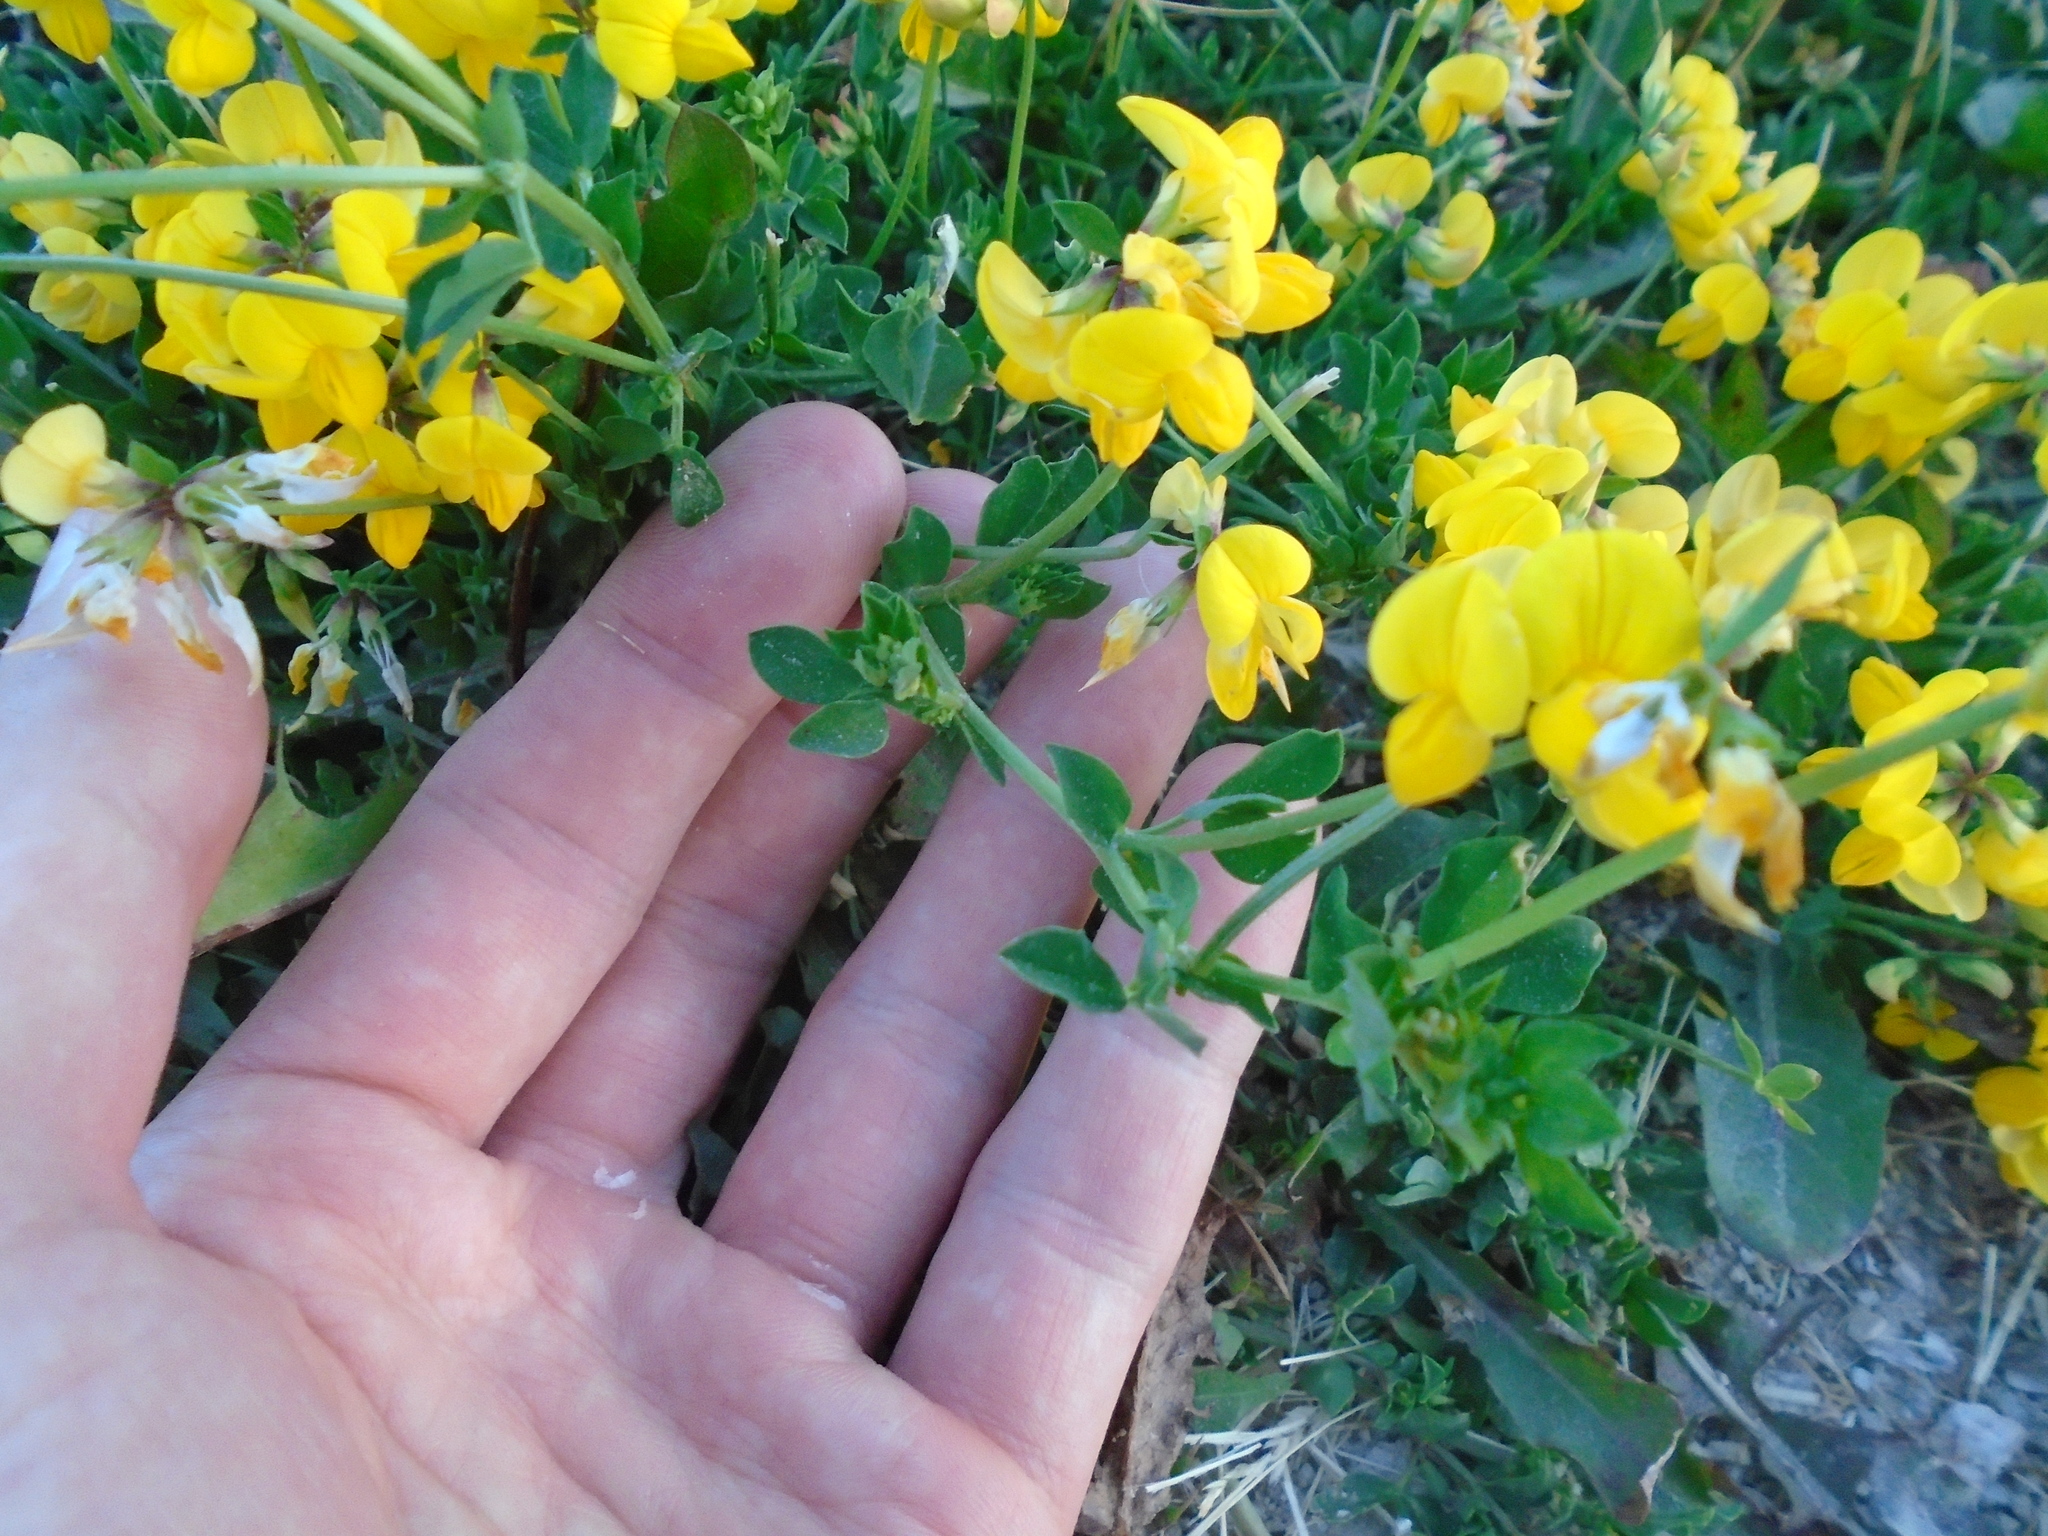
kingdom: Plantae
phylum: Tracheophyta
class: Magnoliopsida
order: Fabales
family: Fabaceae
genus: Lotus
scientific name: Lotus corniculatus
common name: Common bird's-foot-trefoil
